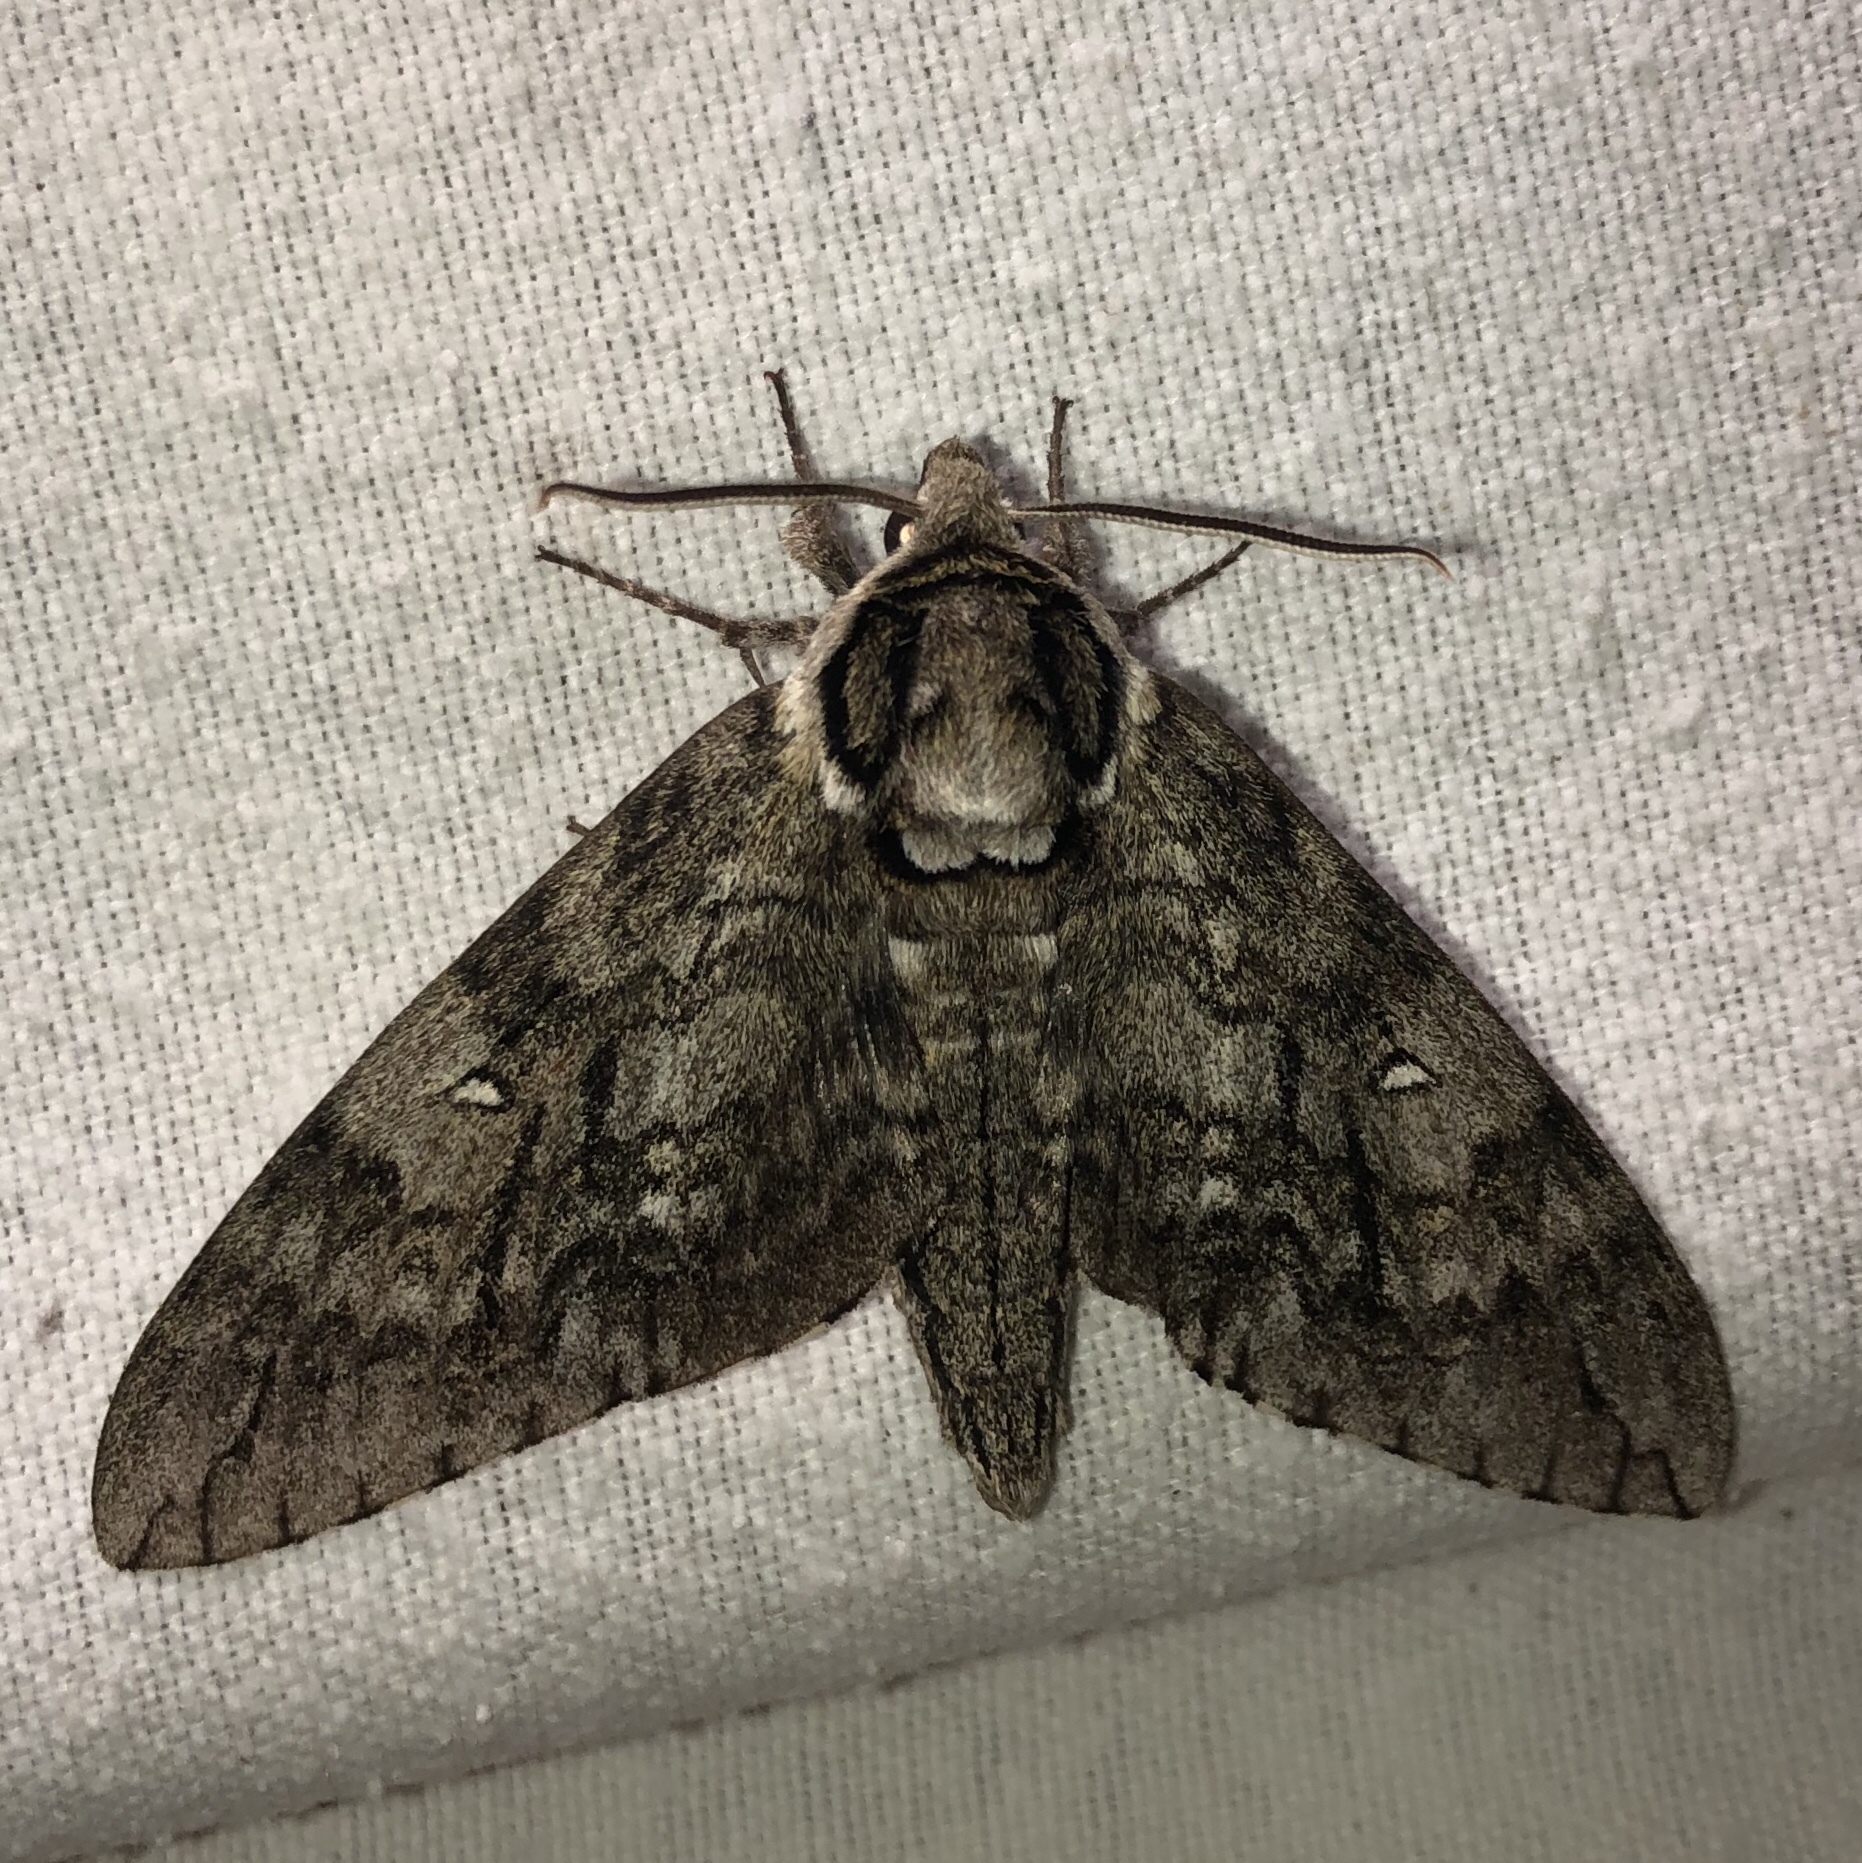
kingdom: Animalia
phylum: Arthropoda
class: Insecta
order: Lepidoptera
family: Sphingidae
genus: Ceratomia
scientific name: Ceratomia undulosa
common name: Waved sphinx
